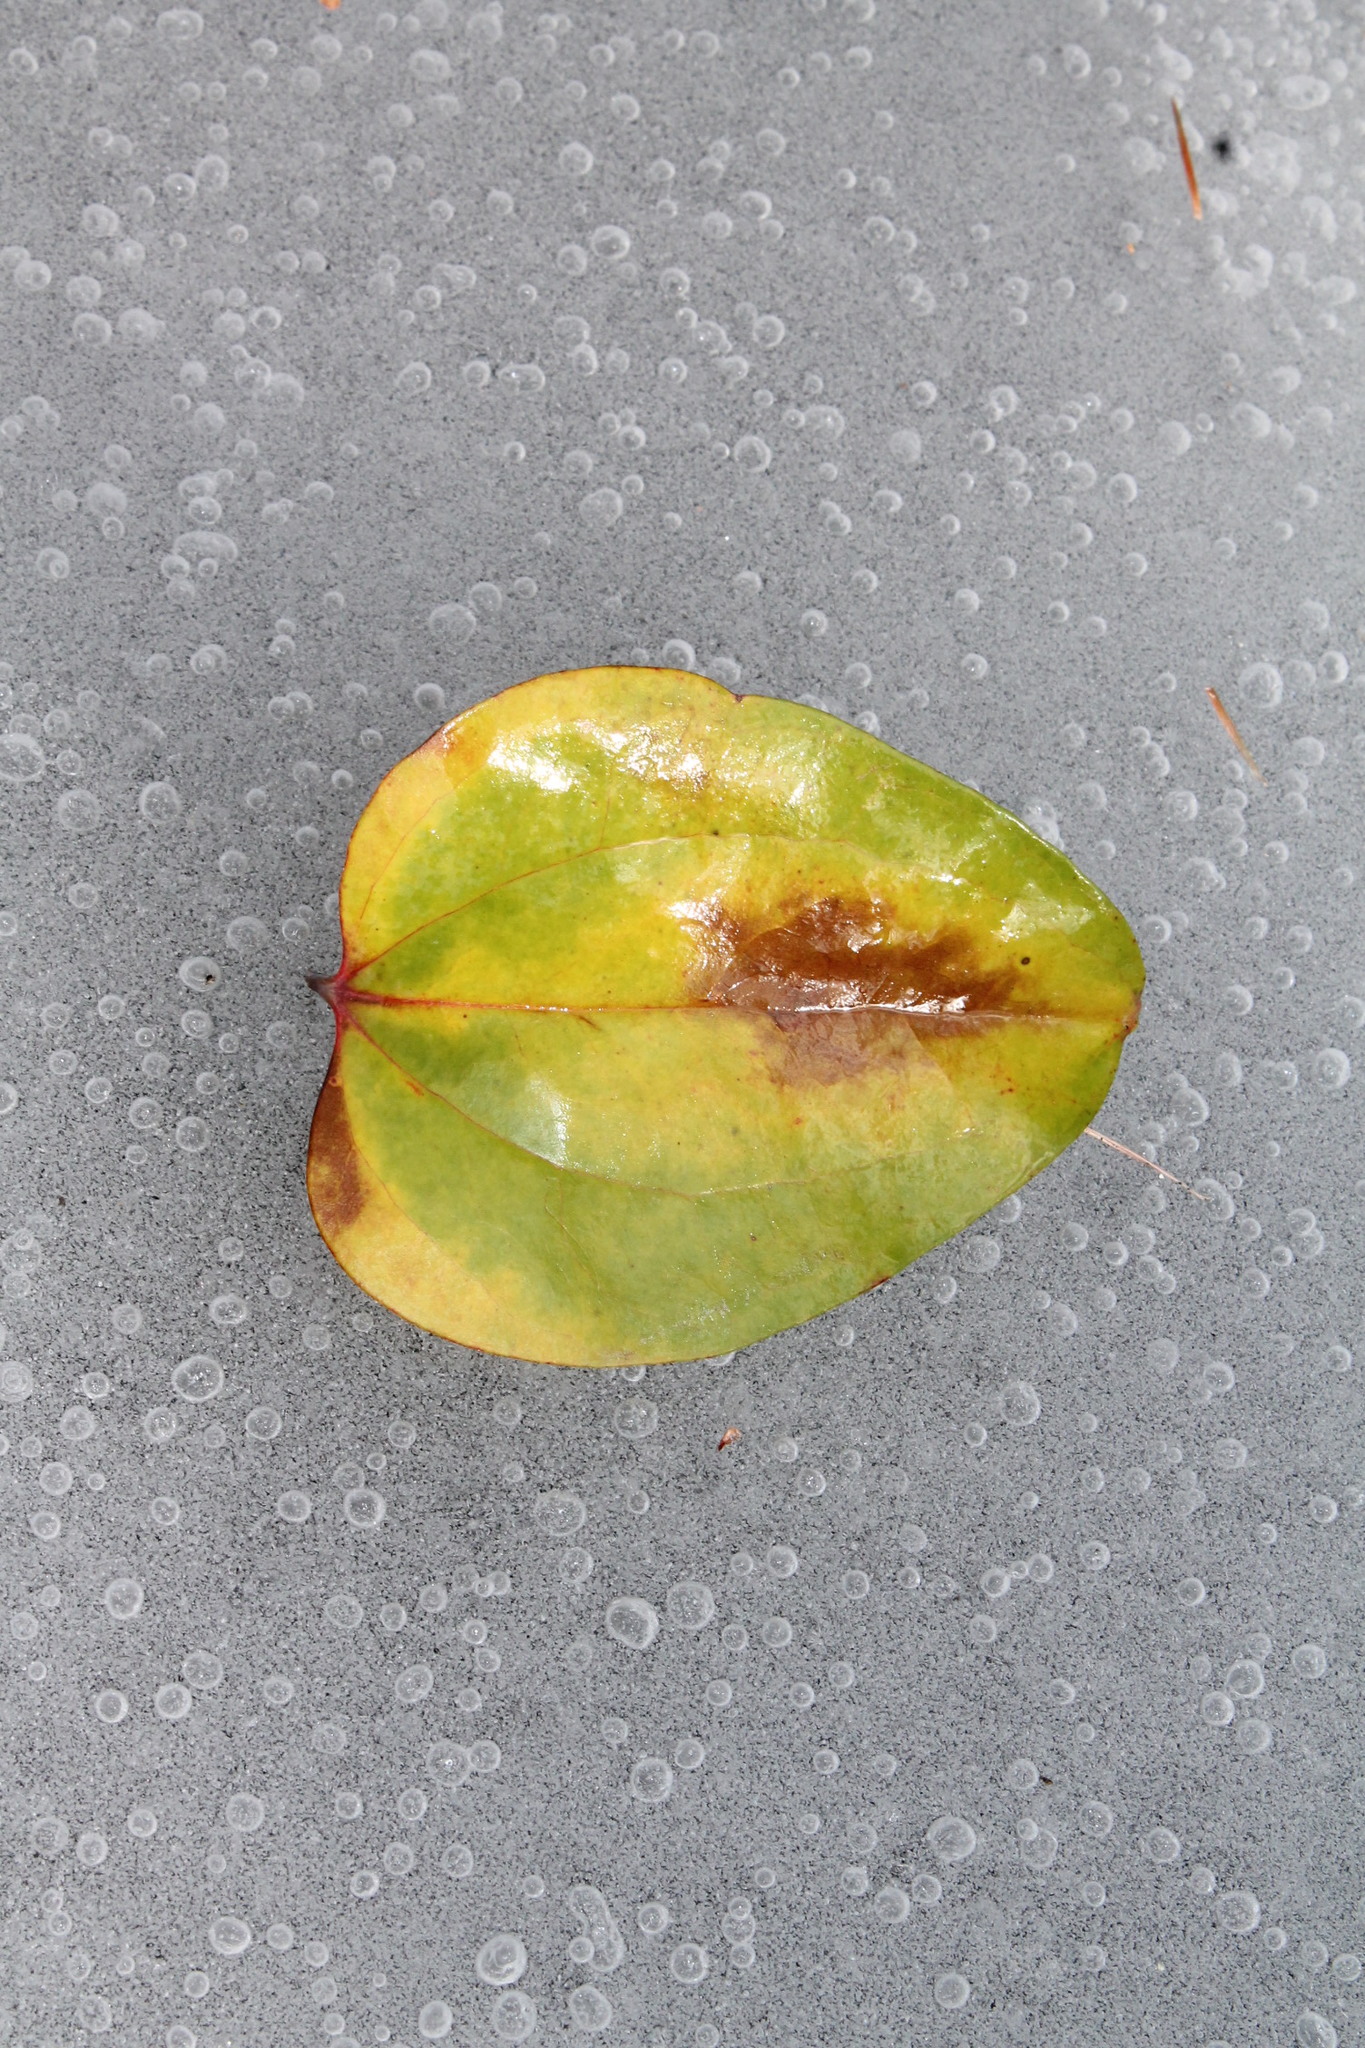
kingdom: Plantae
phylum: Tracheophyta
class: Liliopsida
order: Liliales
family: Smilacaceae
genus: Smilax
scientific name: Smilax glauca
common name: Cat greenbrier
